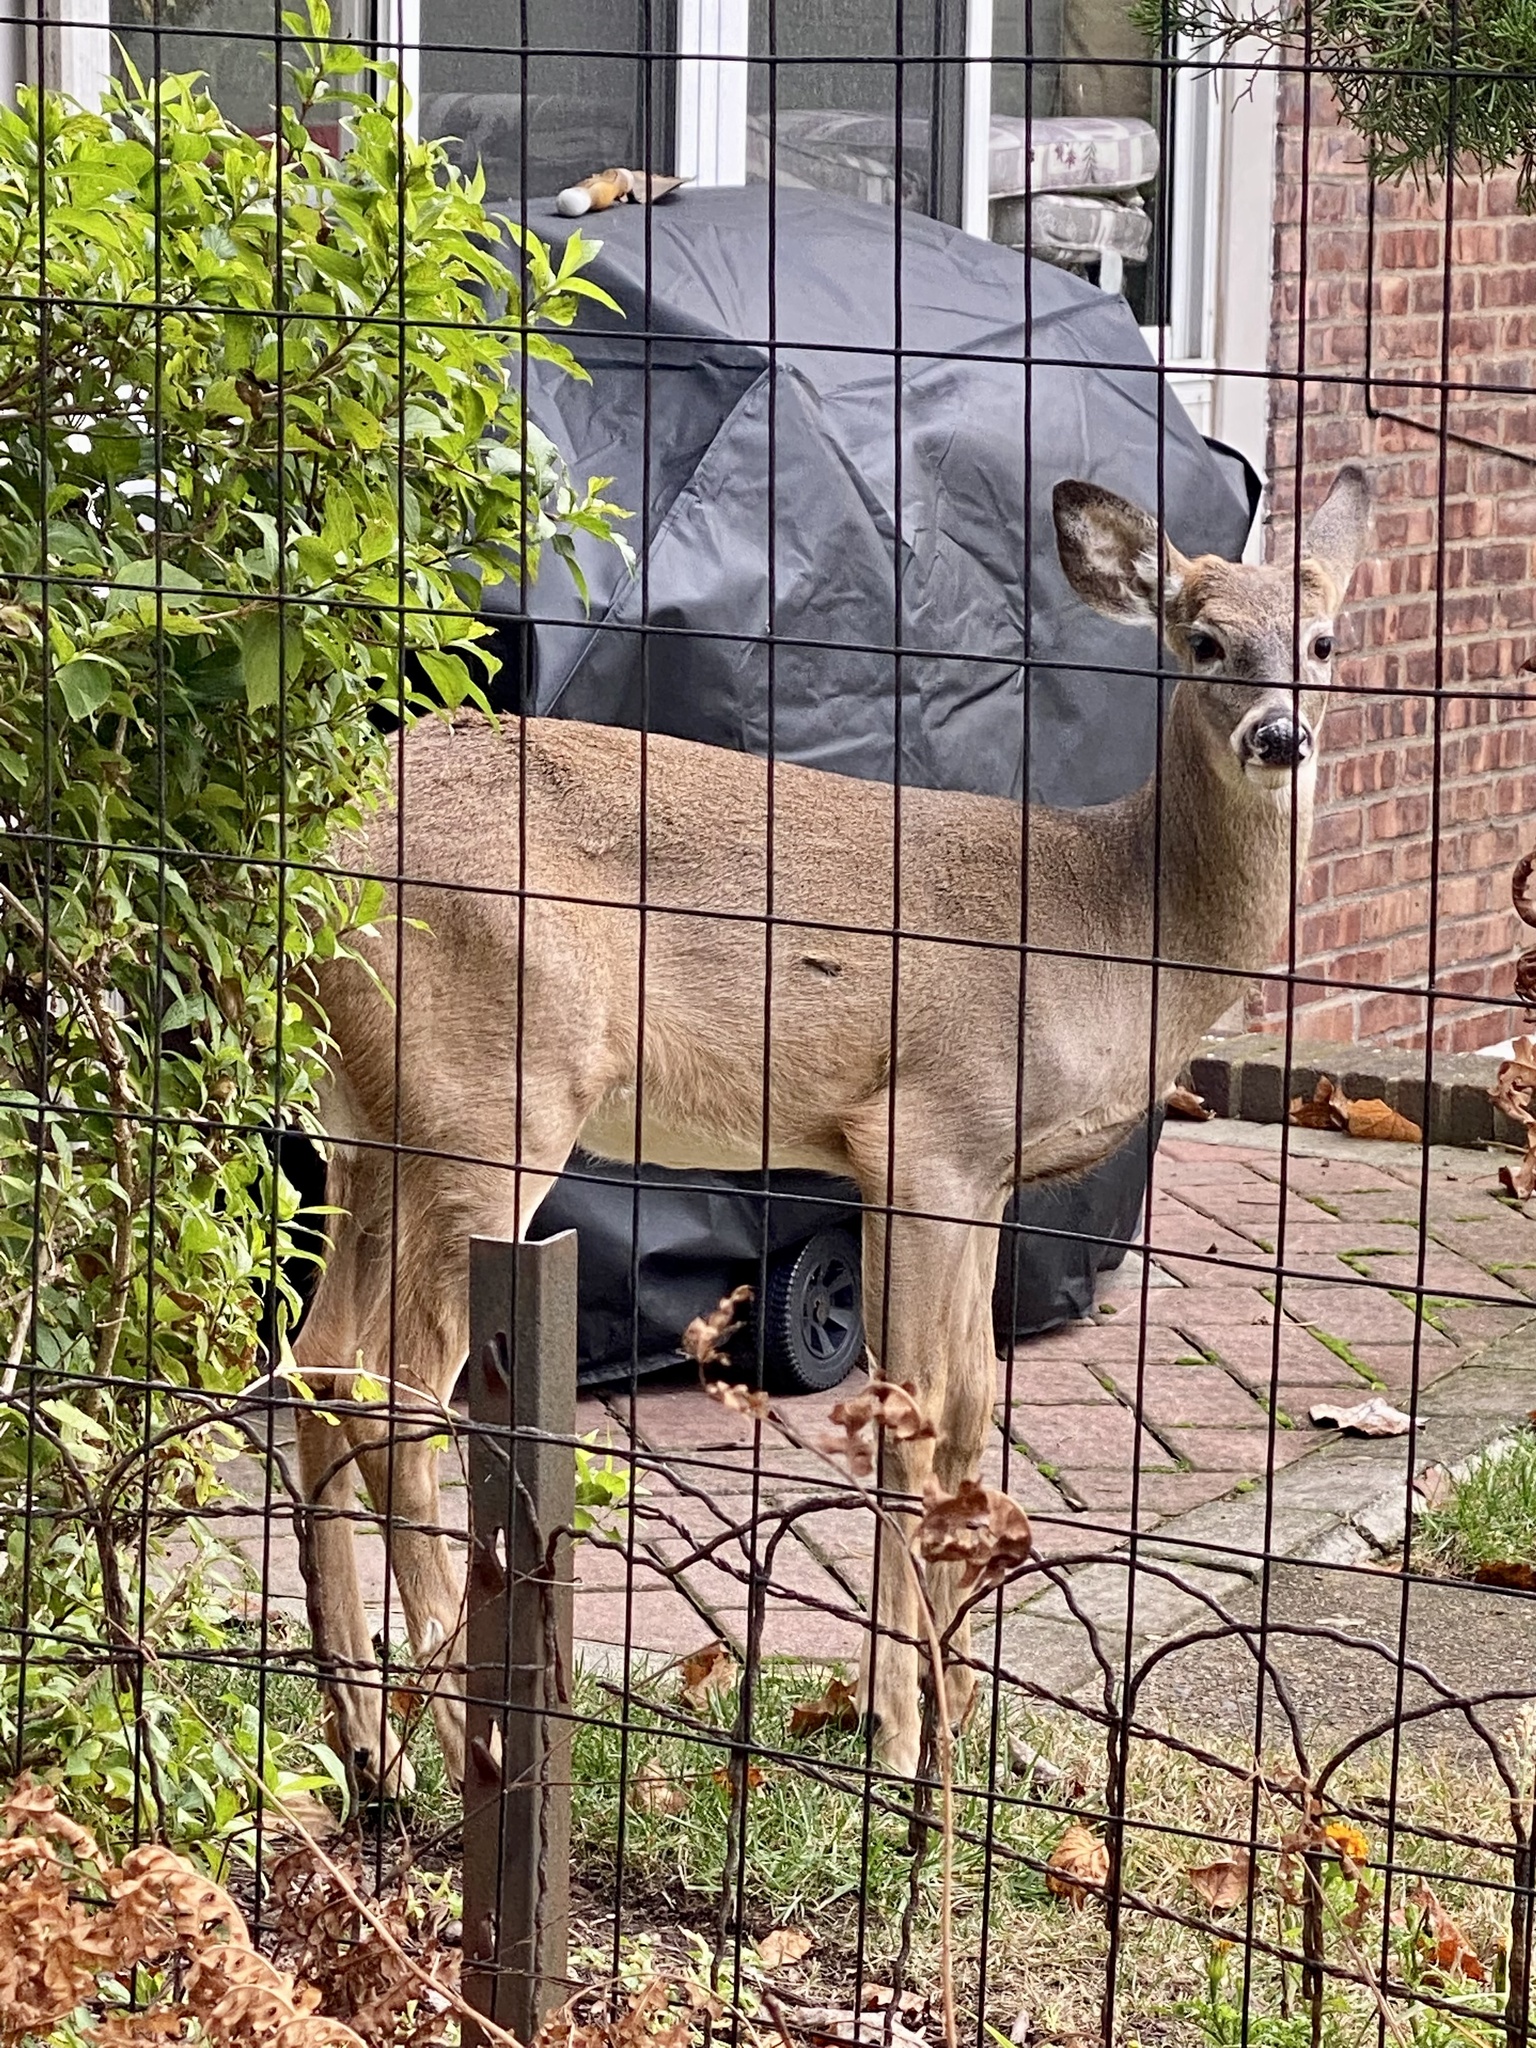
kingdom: Animalia
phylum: Chordata
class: Mammalia
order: Artiodactyla
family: Cervidae
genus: Odocoileus
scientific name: Odocoileus virginianus
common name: White-tailed deer
